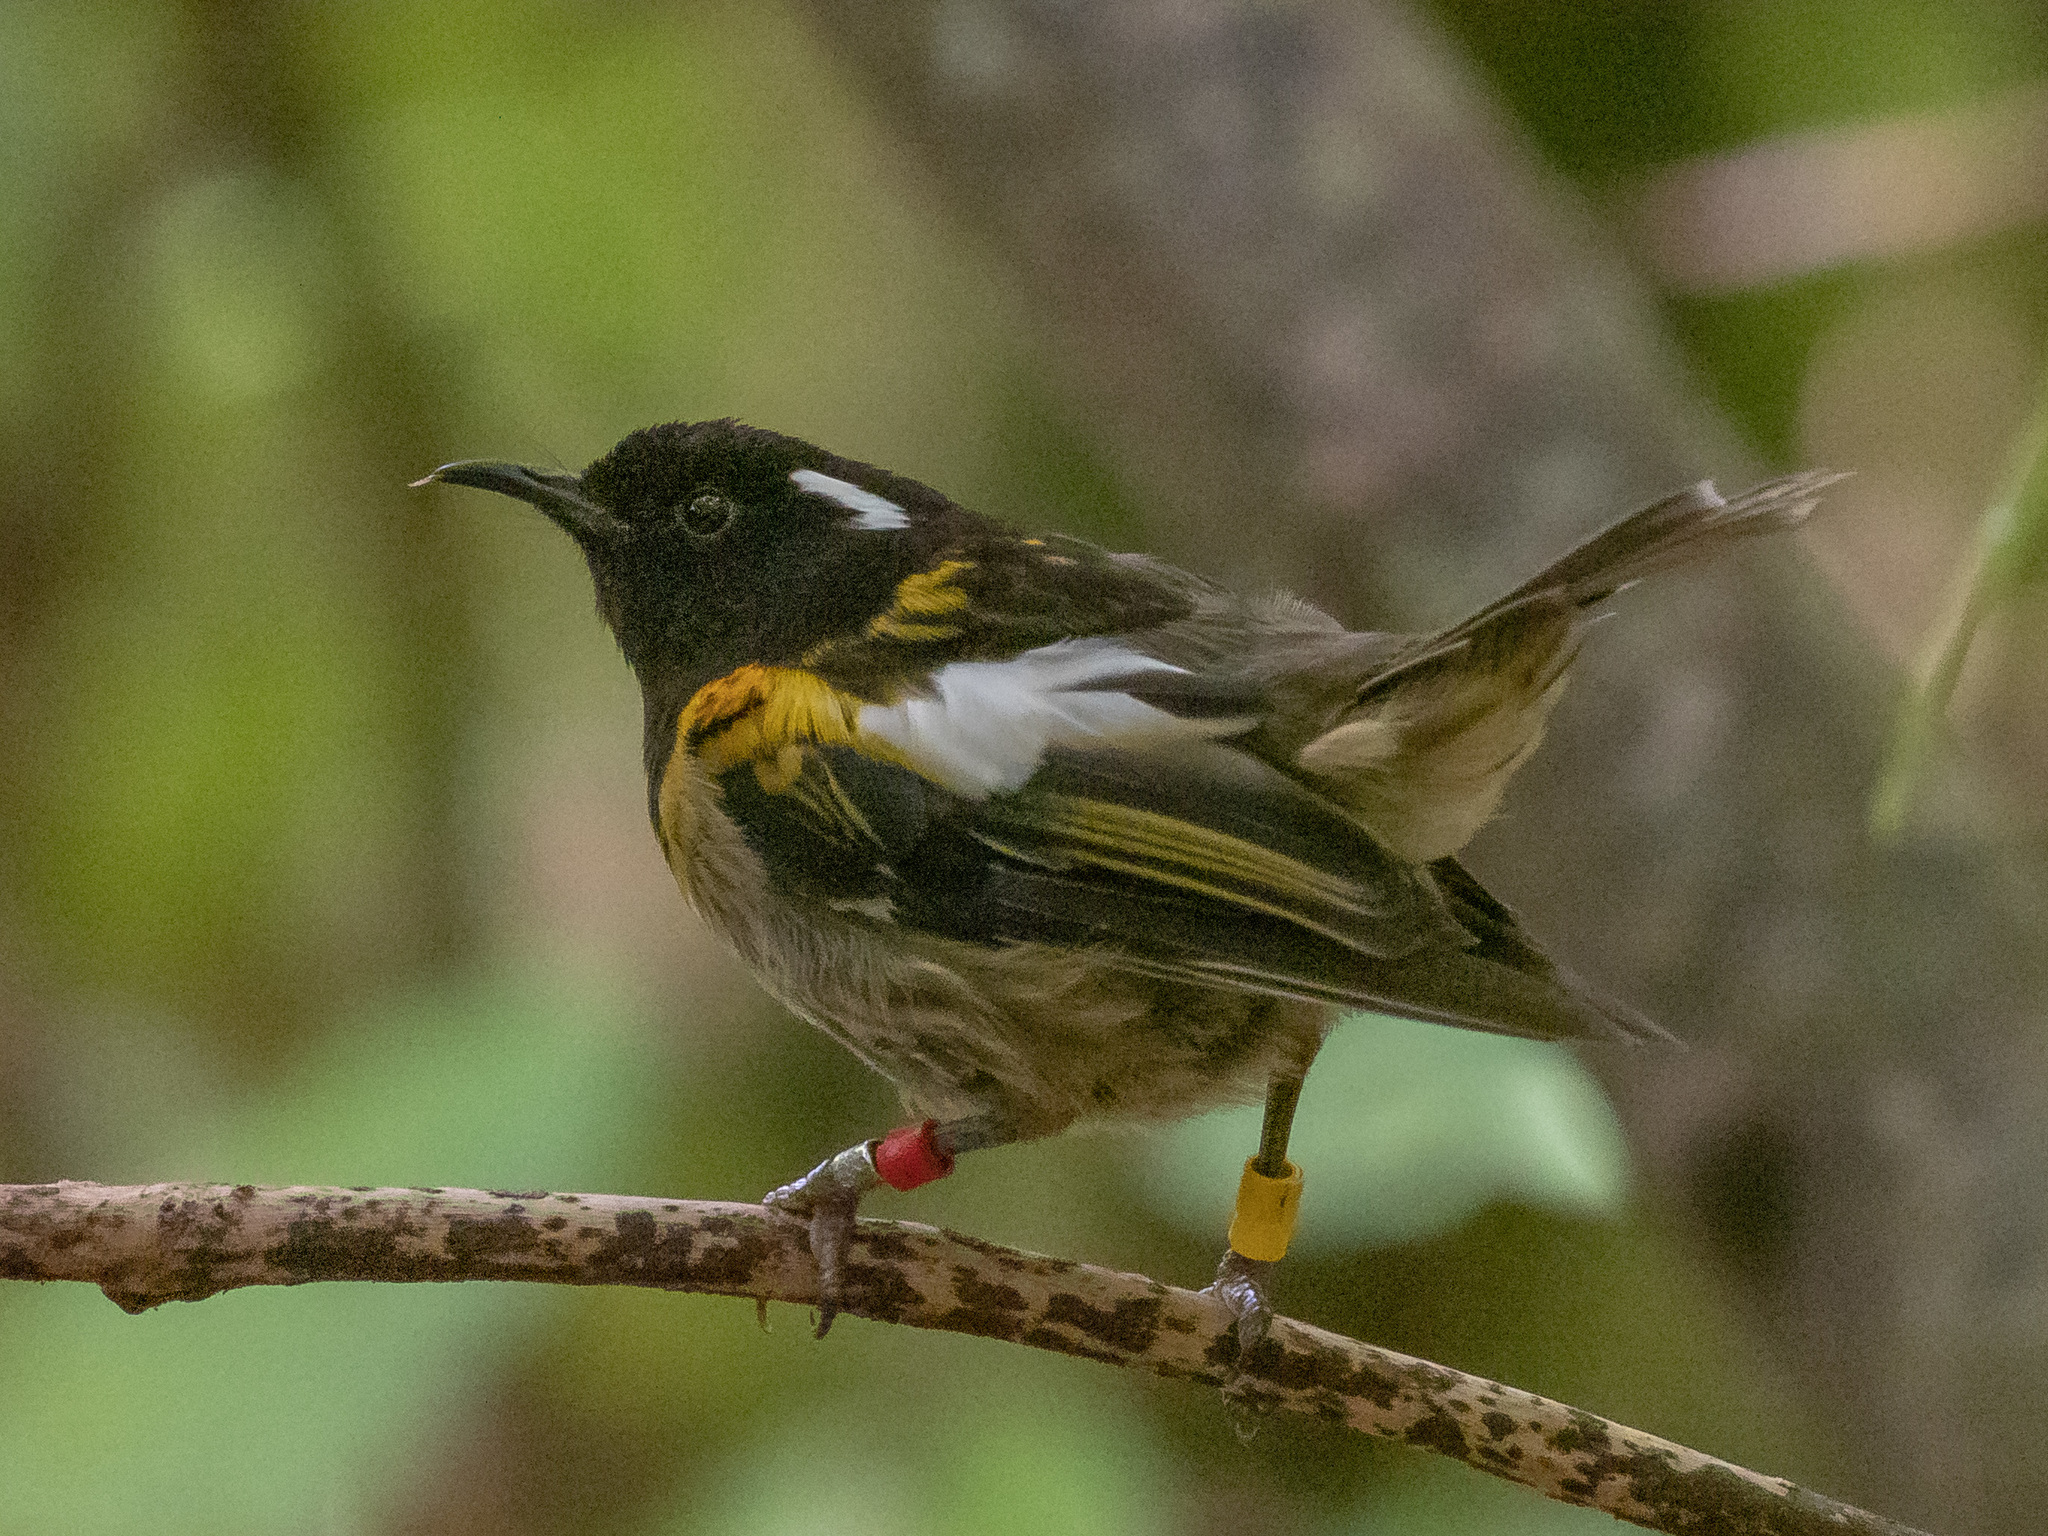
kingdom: Animalia
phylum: Chordata
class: Aves
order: Passeriformes
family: Notiomystidae
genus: Notiomystis
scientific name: Notiomystis cincta
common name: Stitchbird
